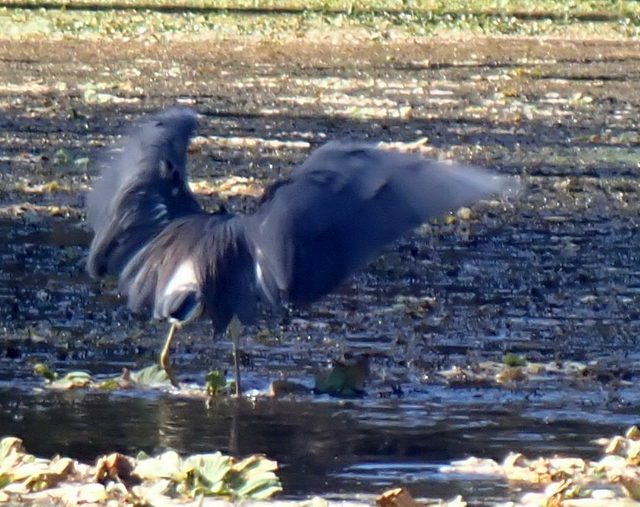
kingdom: Animalia
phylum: Chordata
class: Aves
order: Pelecaniformes
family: Ardeidae
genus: Egretta
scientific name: Egretta tricolor
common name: Tricolored heron
